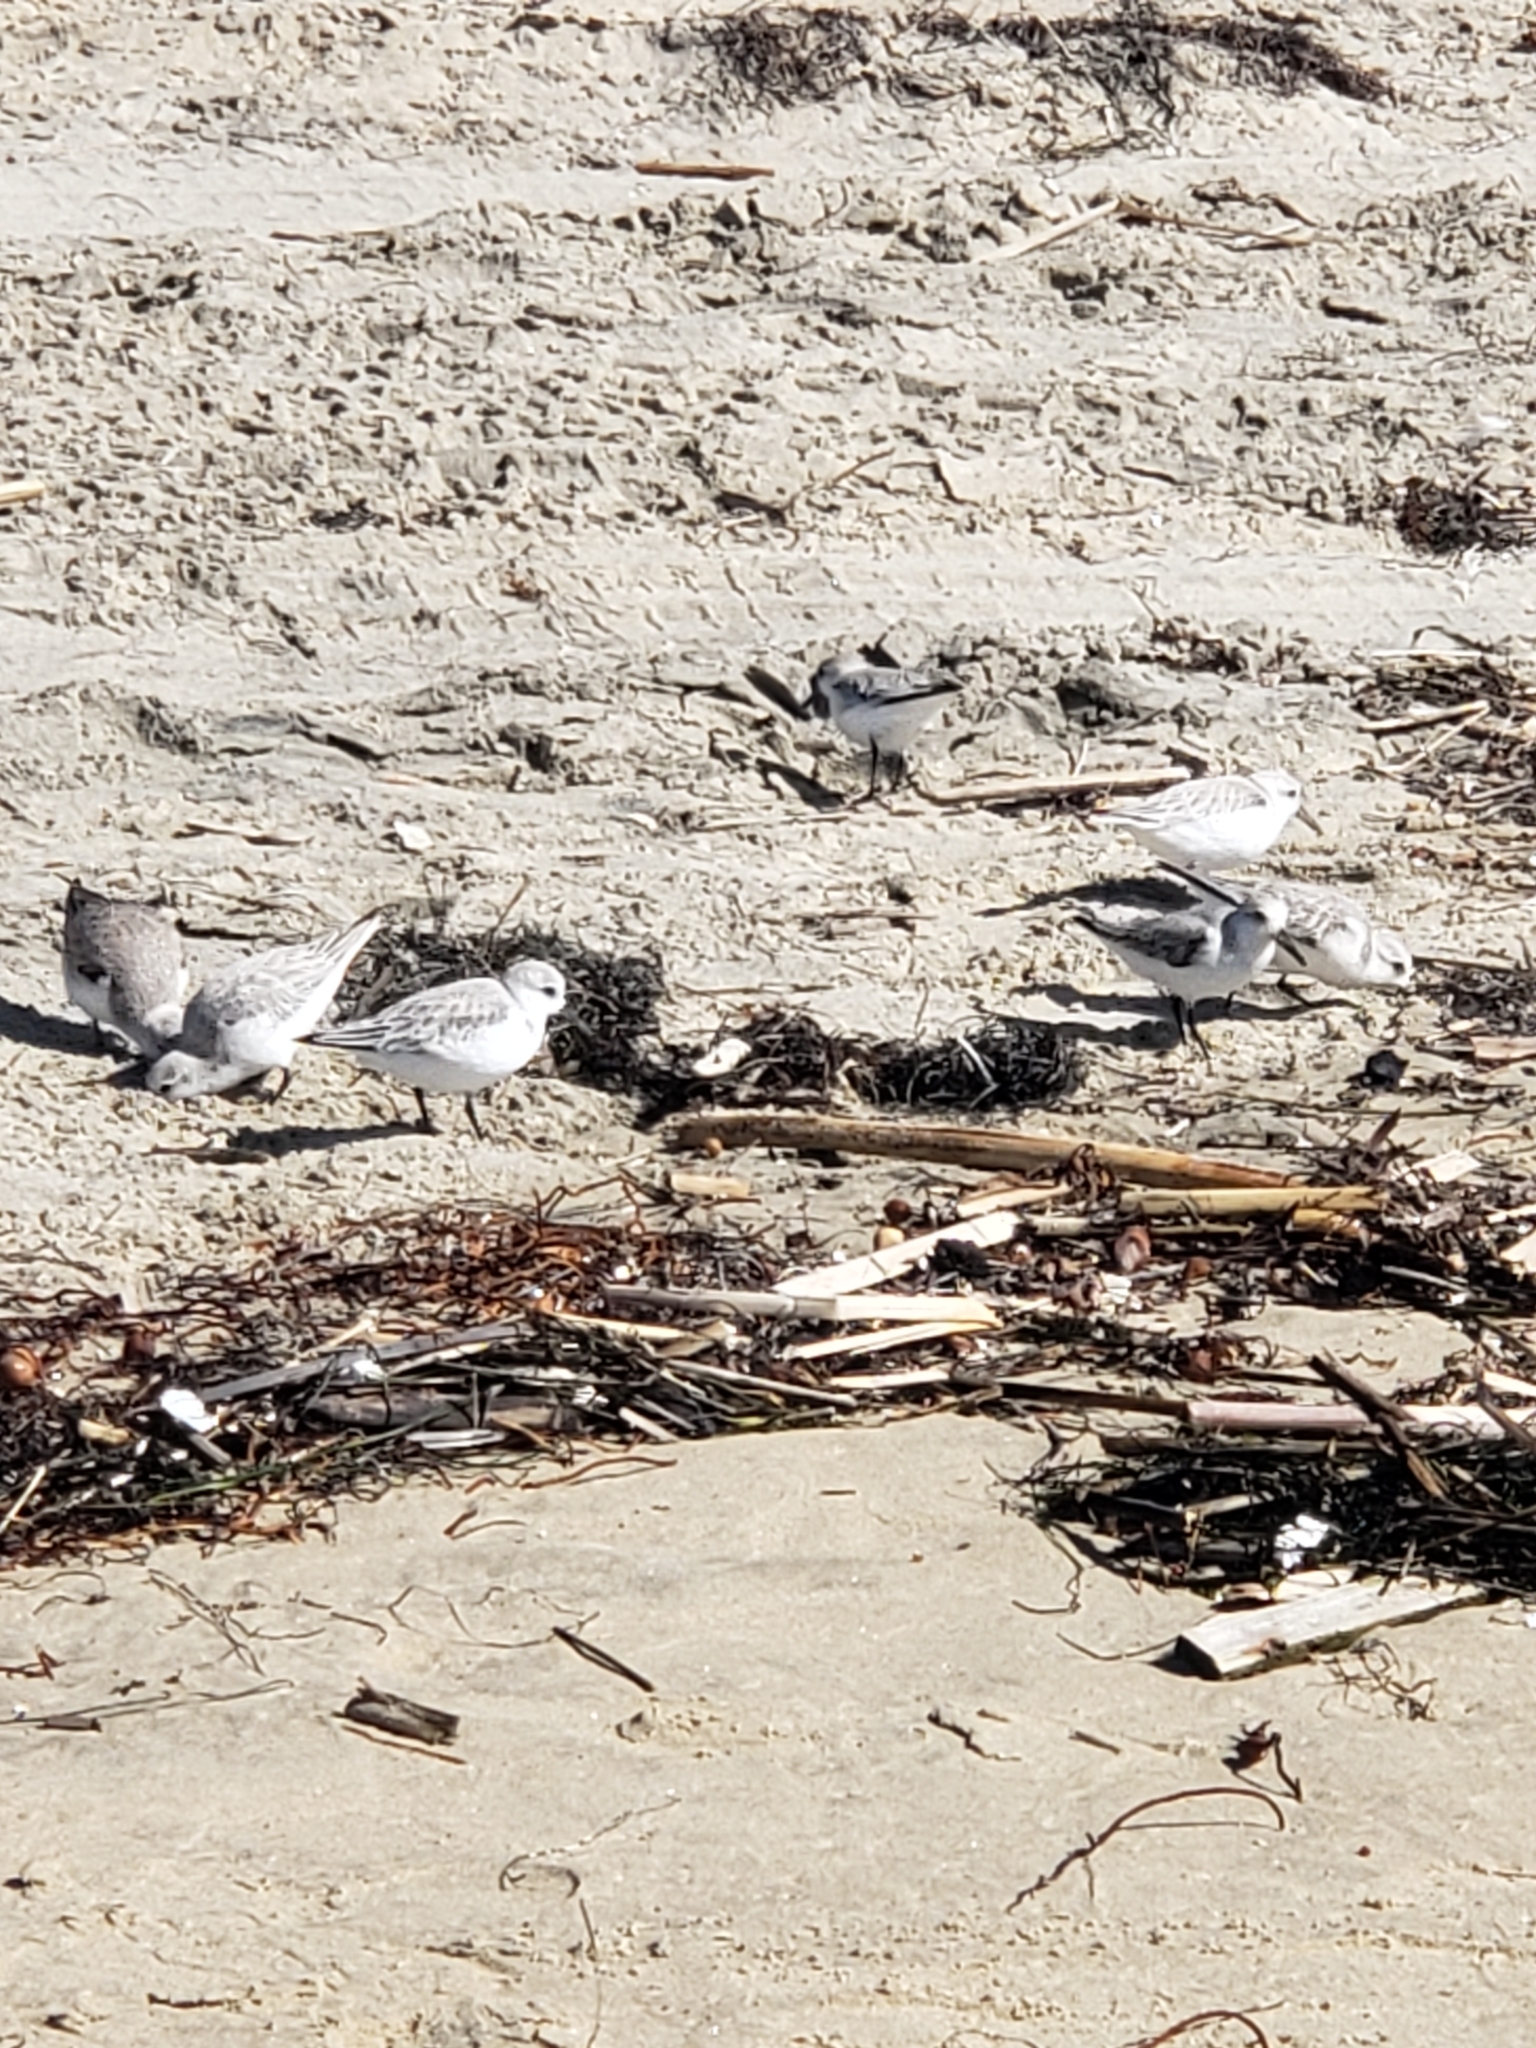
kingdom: Animalia
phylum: Chordata
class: Aves
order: Charadriiformes
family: Scolopacidae
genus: Calidris
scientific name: Calidris alba
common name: Sanderling
